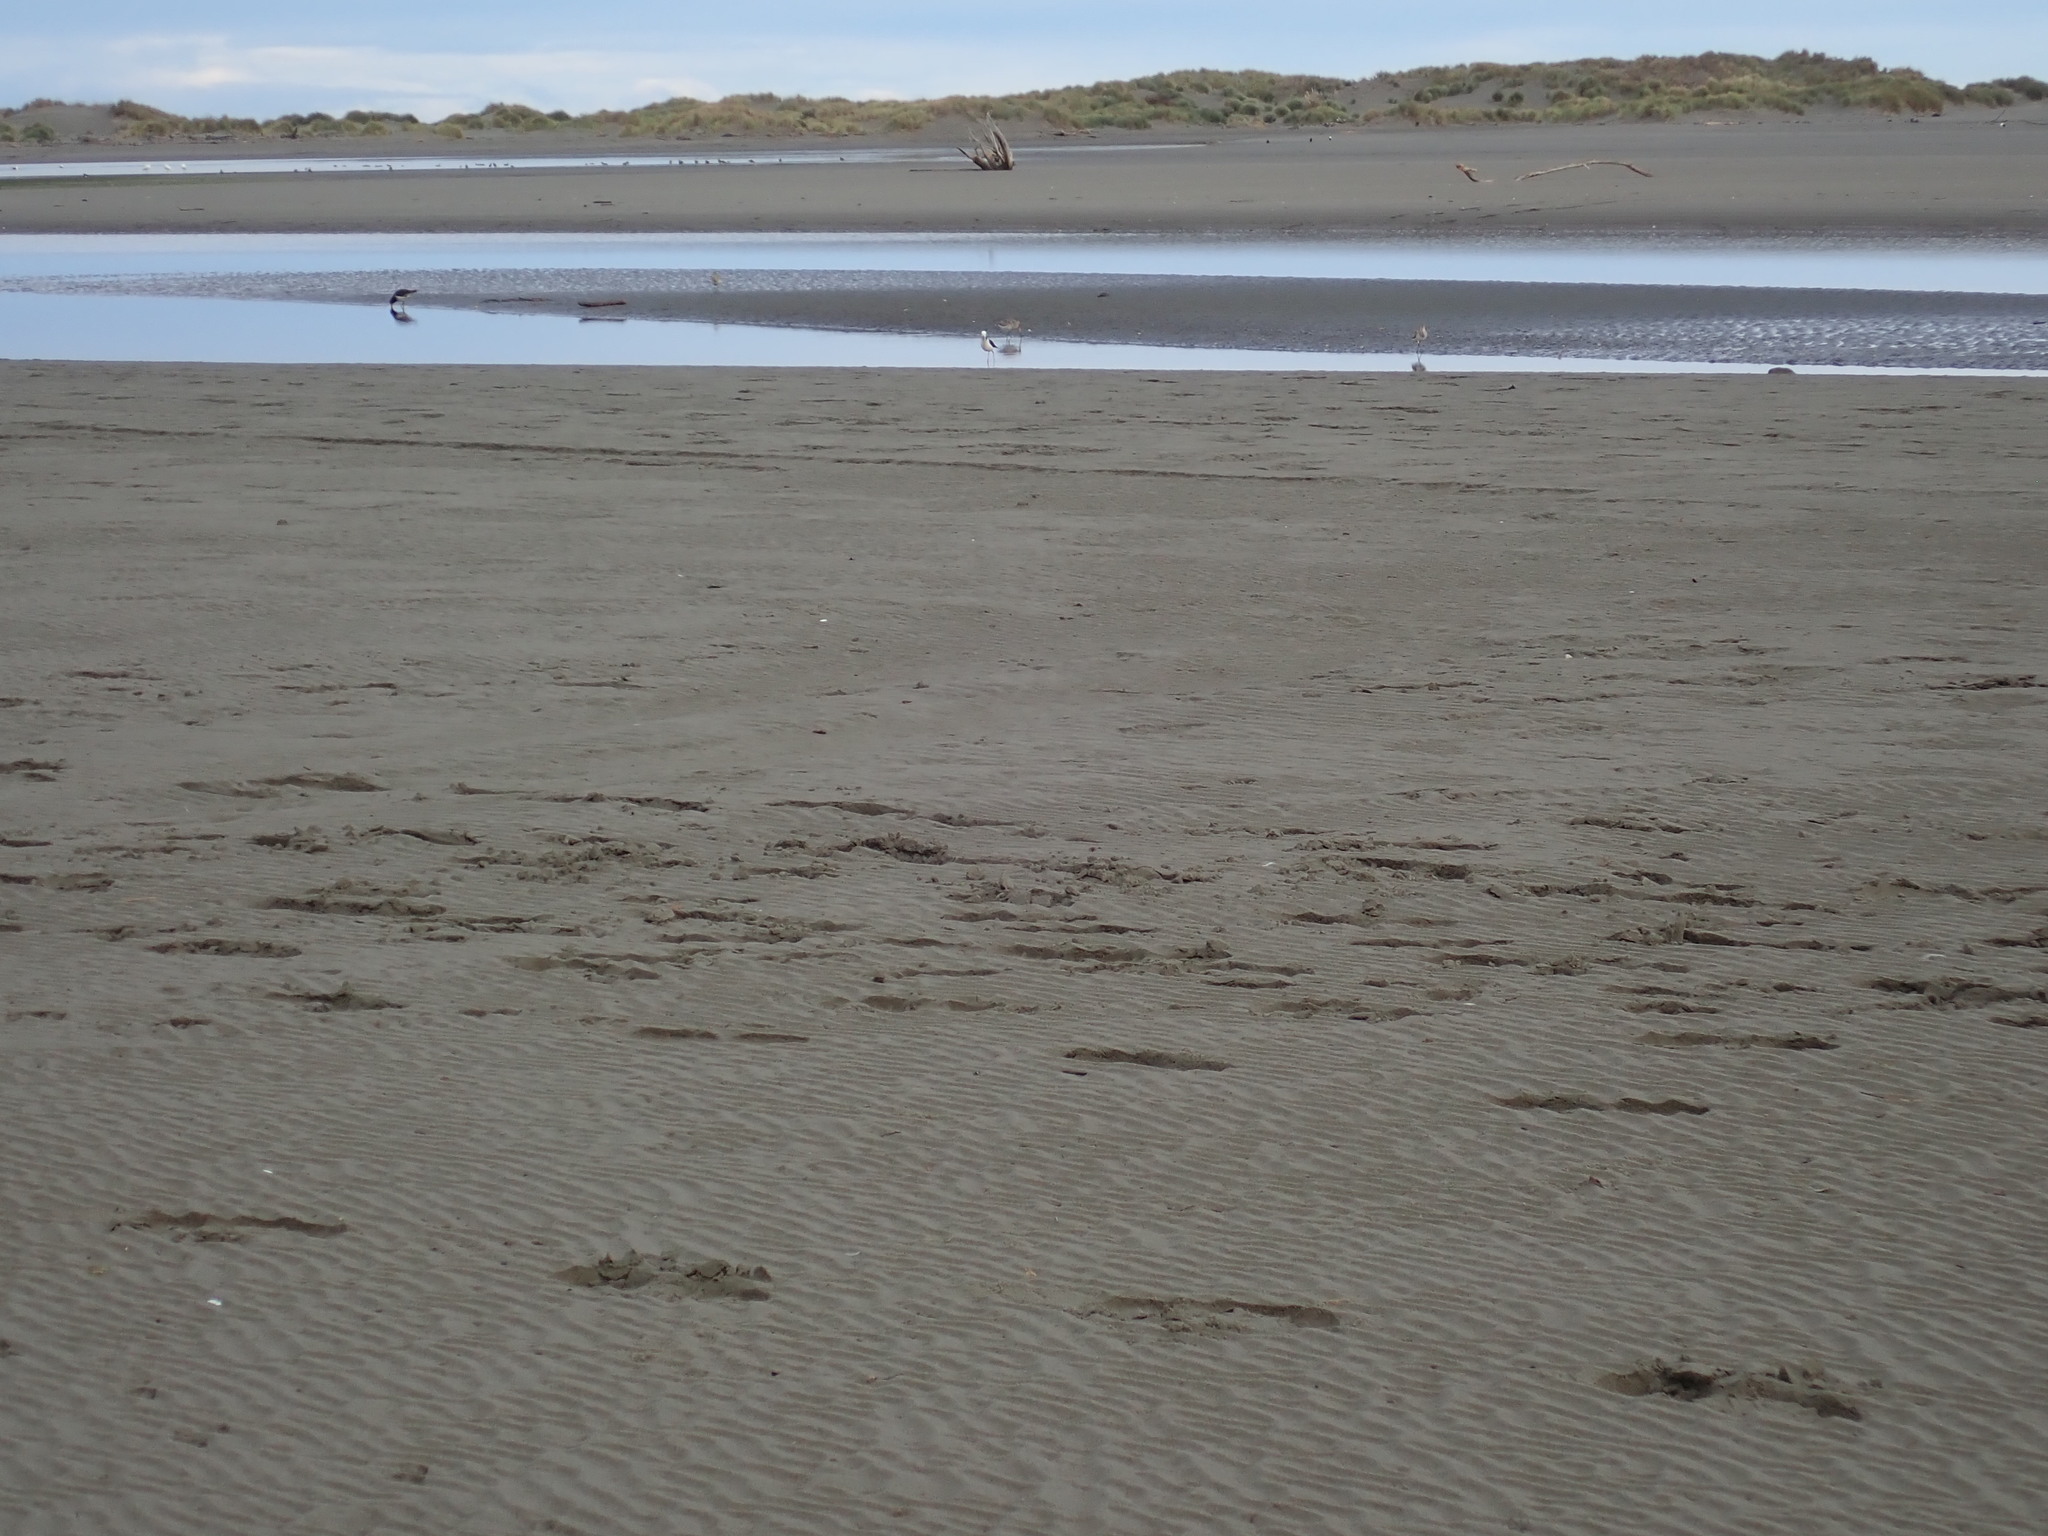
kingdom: Animalia
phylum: Chordata
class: Aves
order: Charadriiformes
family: Scolopacidae
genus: Limosa
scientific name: Limosa lapponica
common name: Bar-tailed godwit
